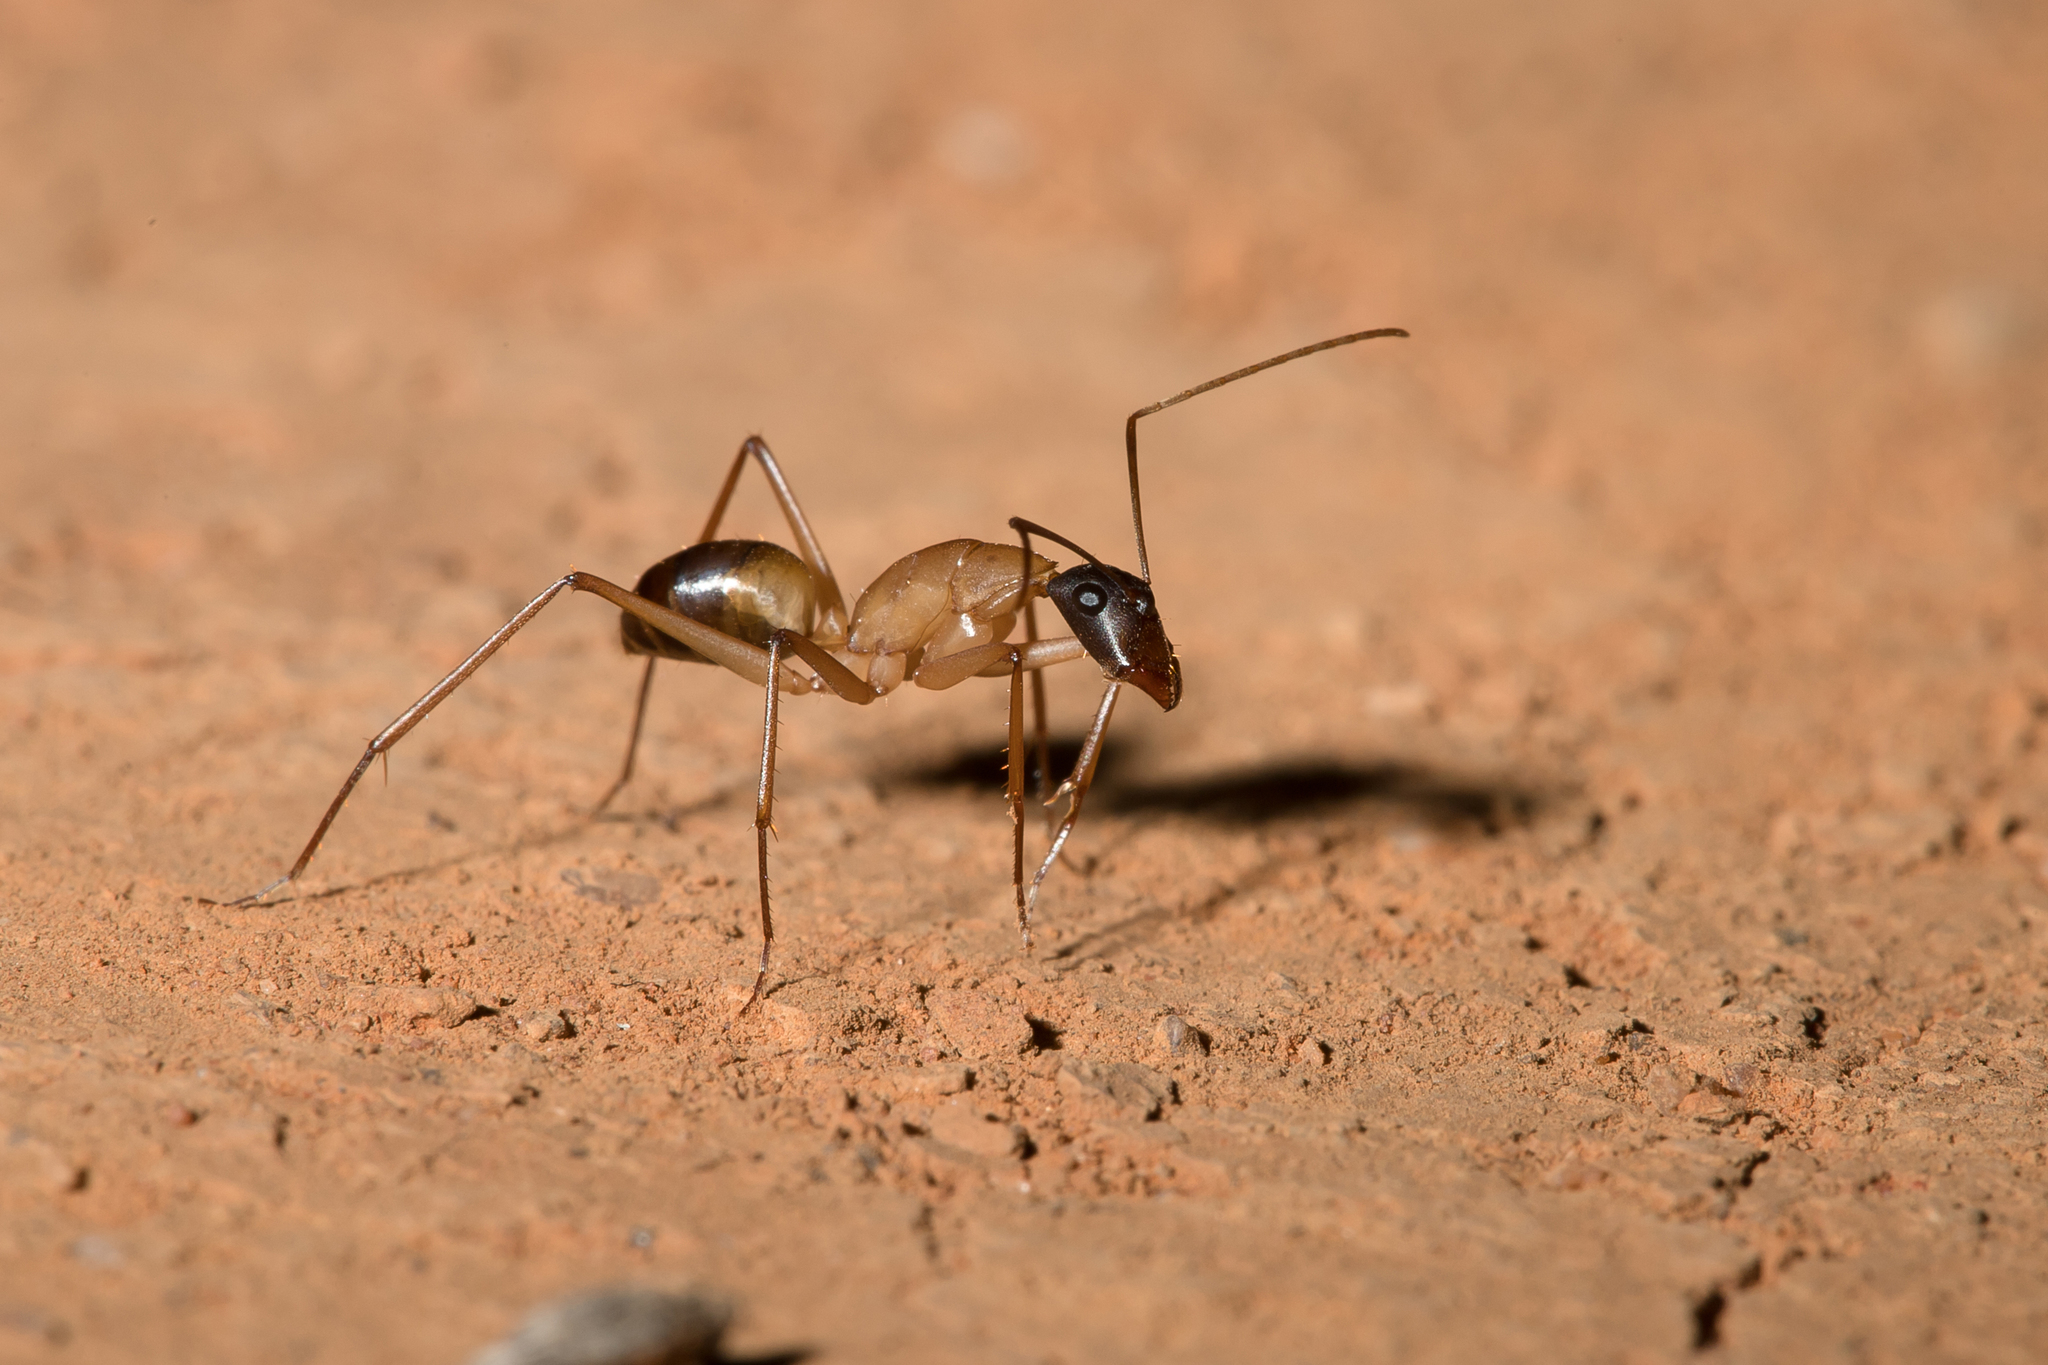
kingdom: Animalia
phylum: Arthropoda
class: Insecta
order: Hymenoptera
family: Formicidae
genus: Camponotus
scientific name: Camponotus nigriceps
